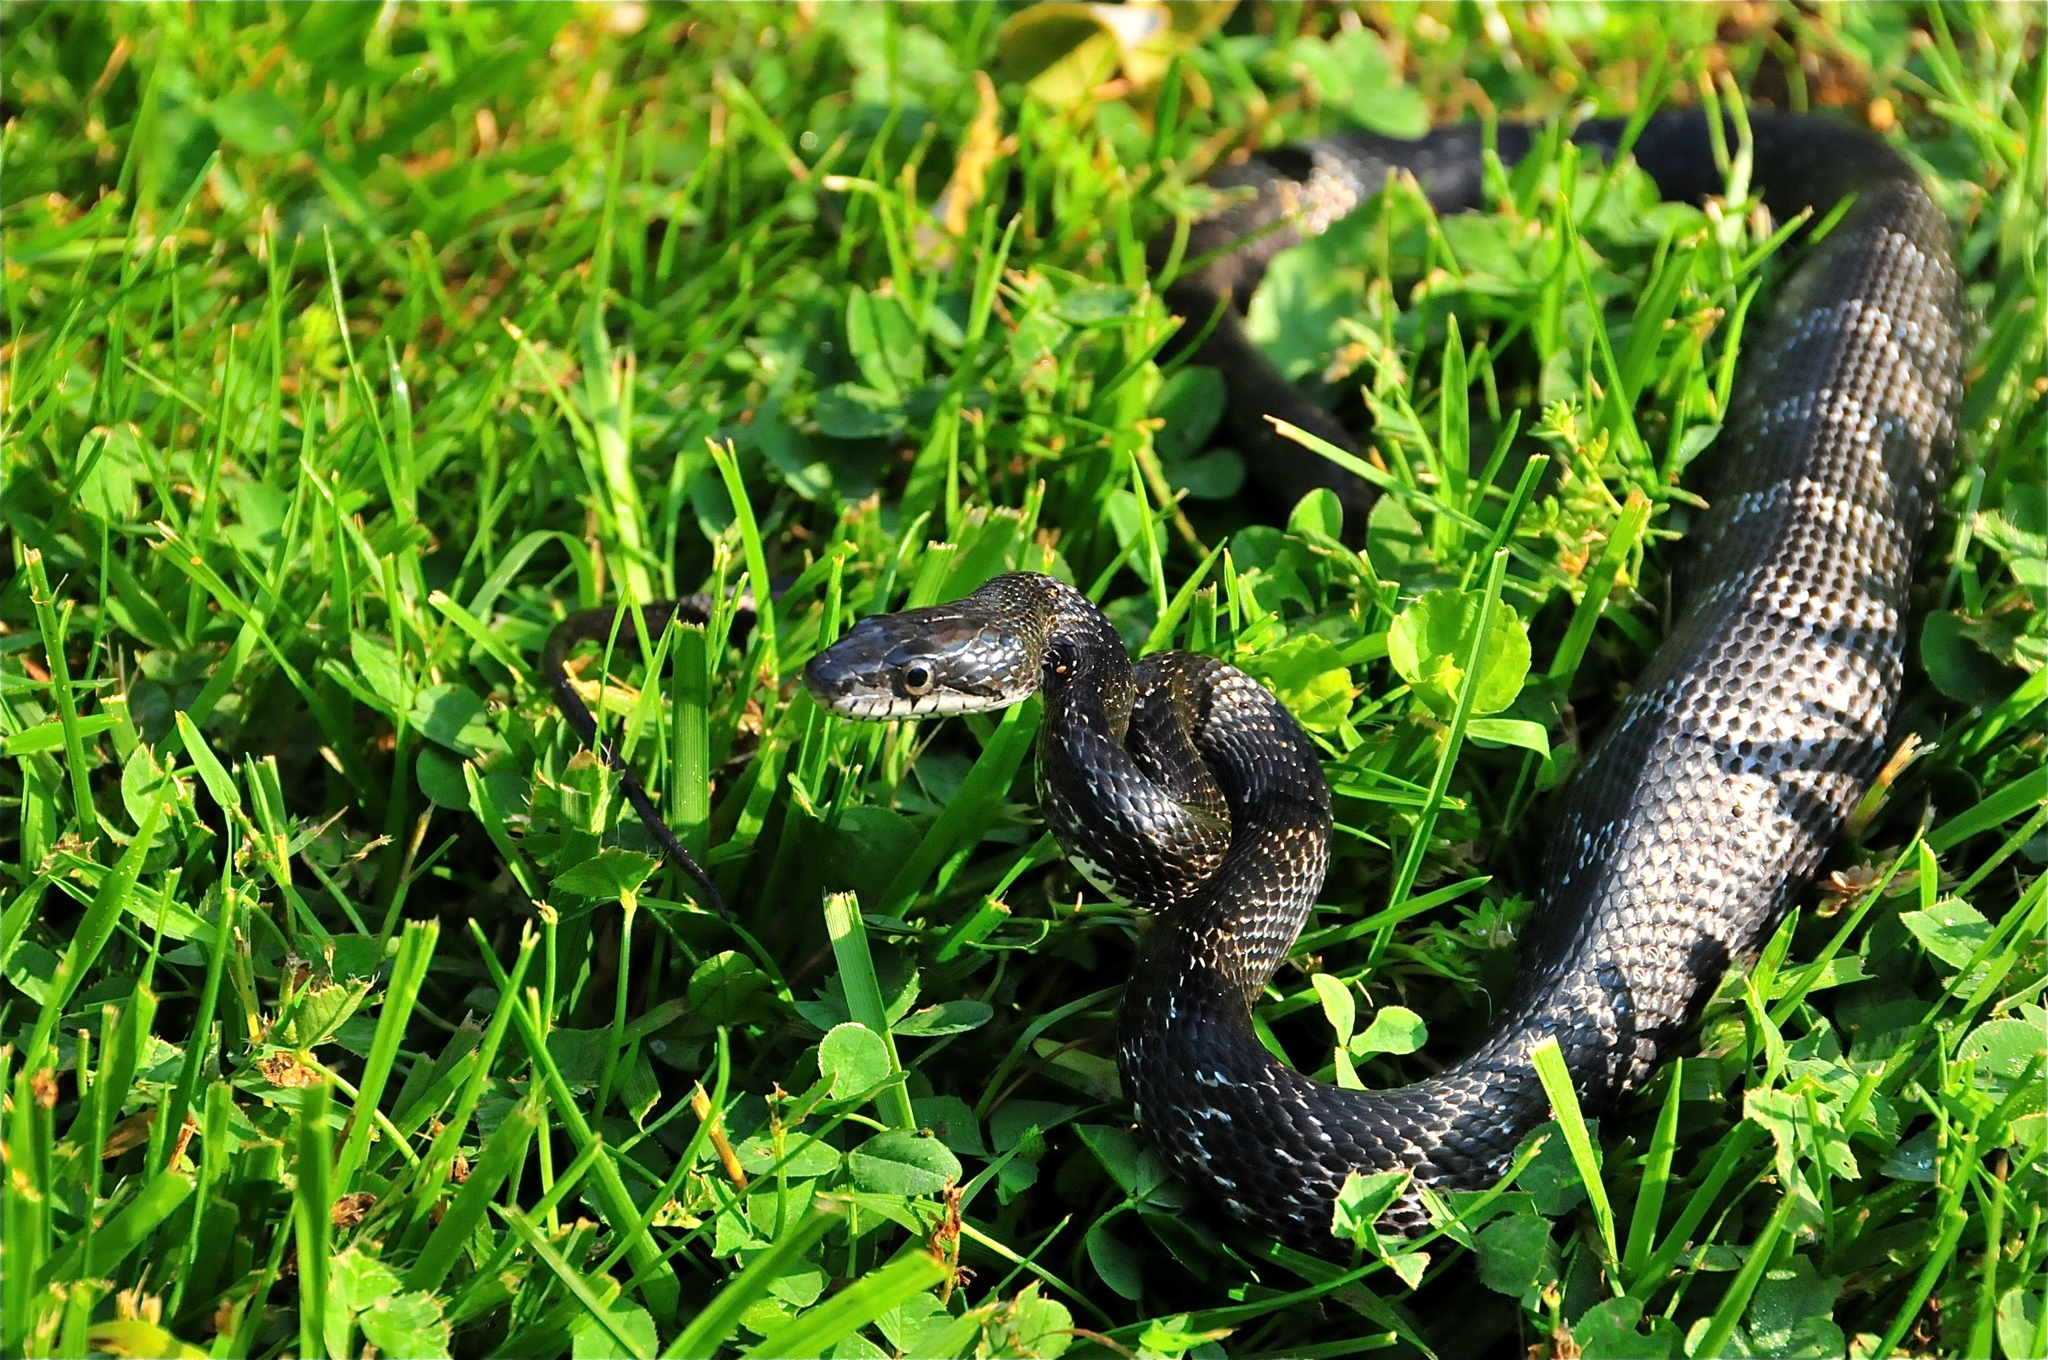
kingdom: Animalia
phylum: Chordata
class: Squamata
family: Colubridae
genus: Pantherophis
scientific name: Pantherophis alleghaniensis
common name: Eastern rat snake
